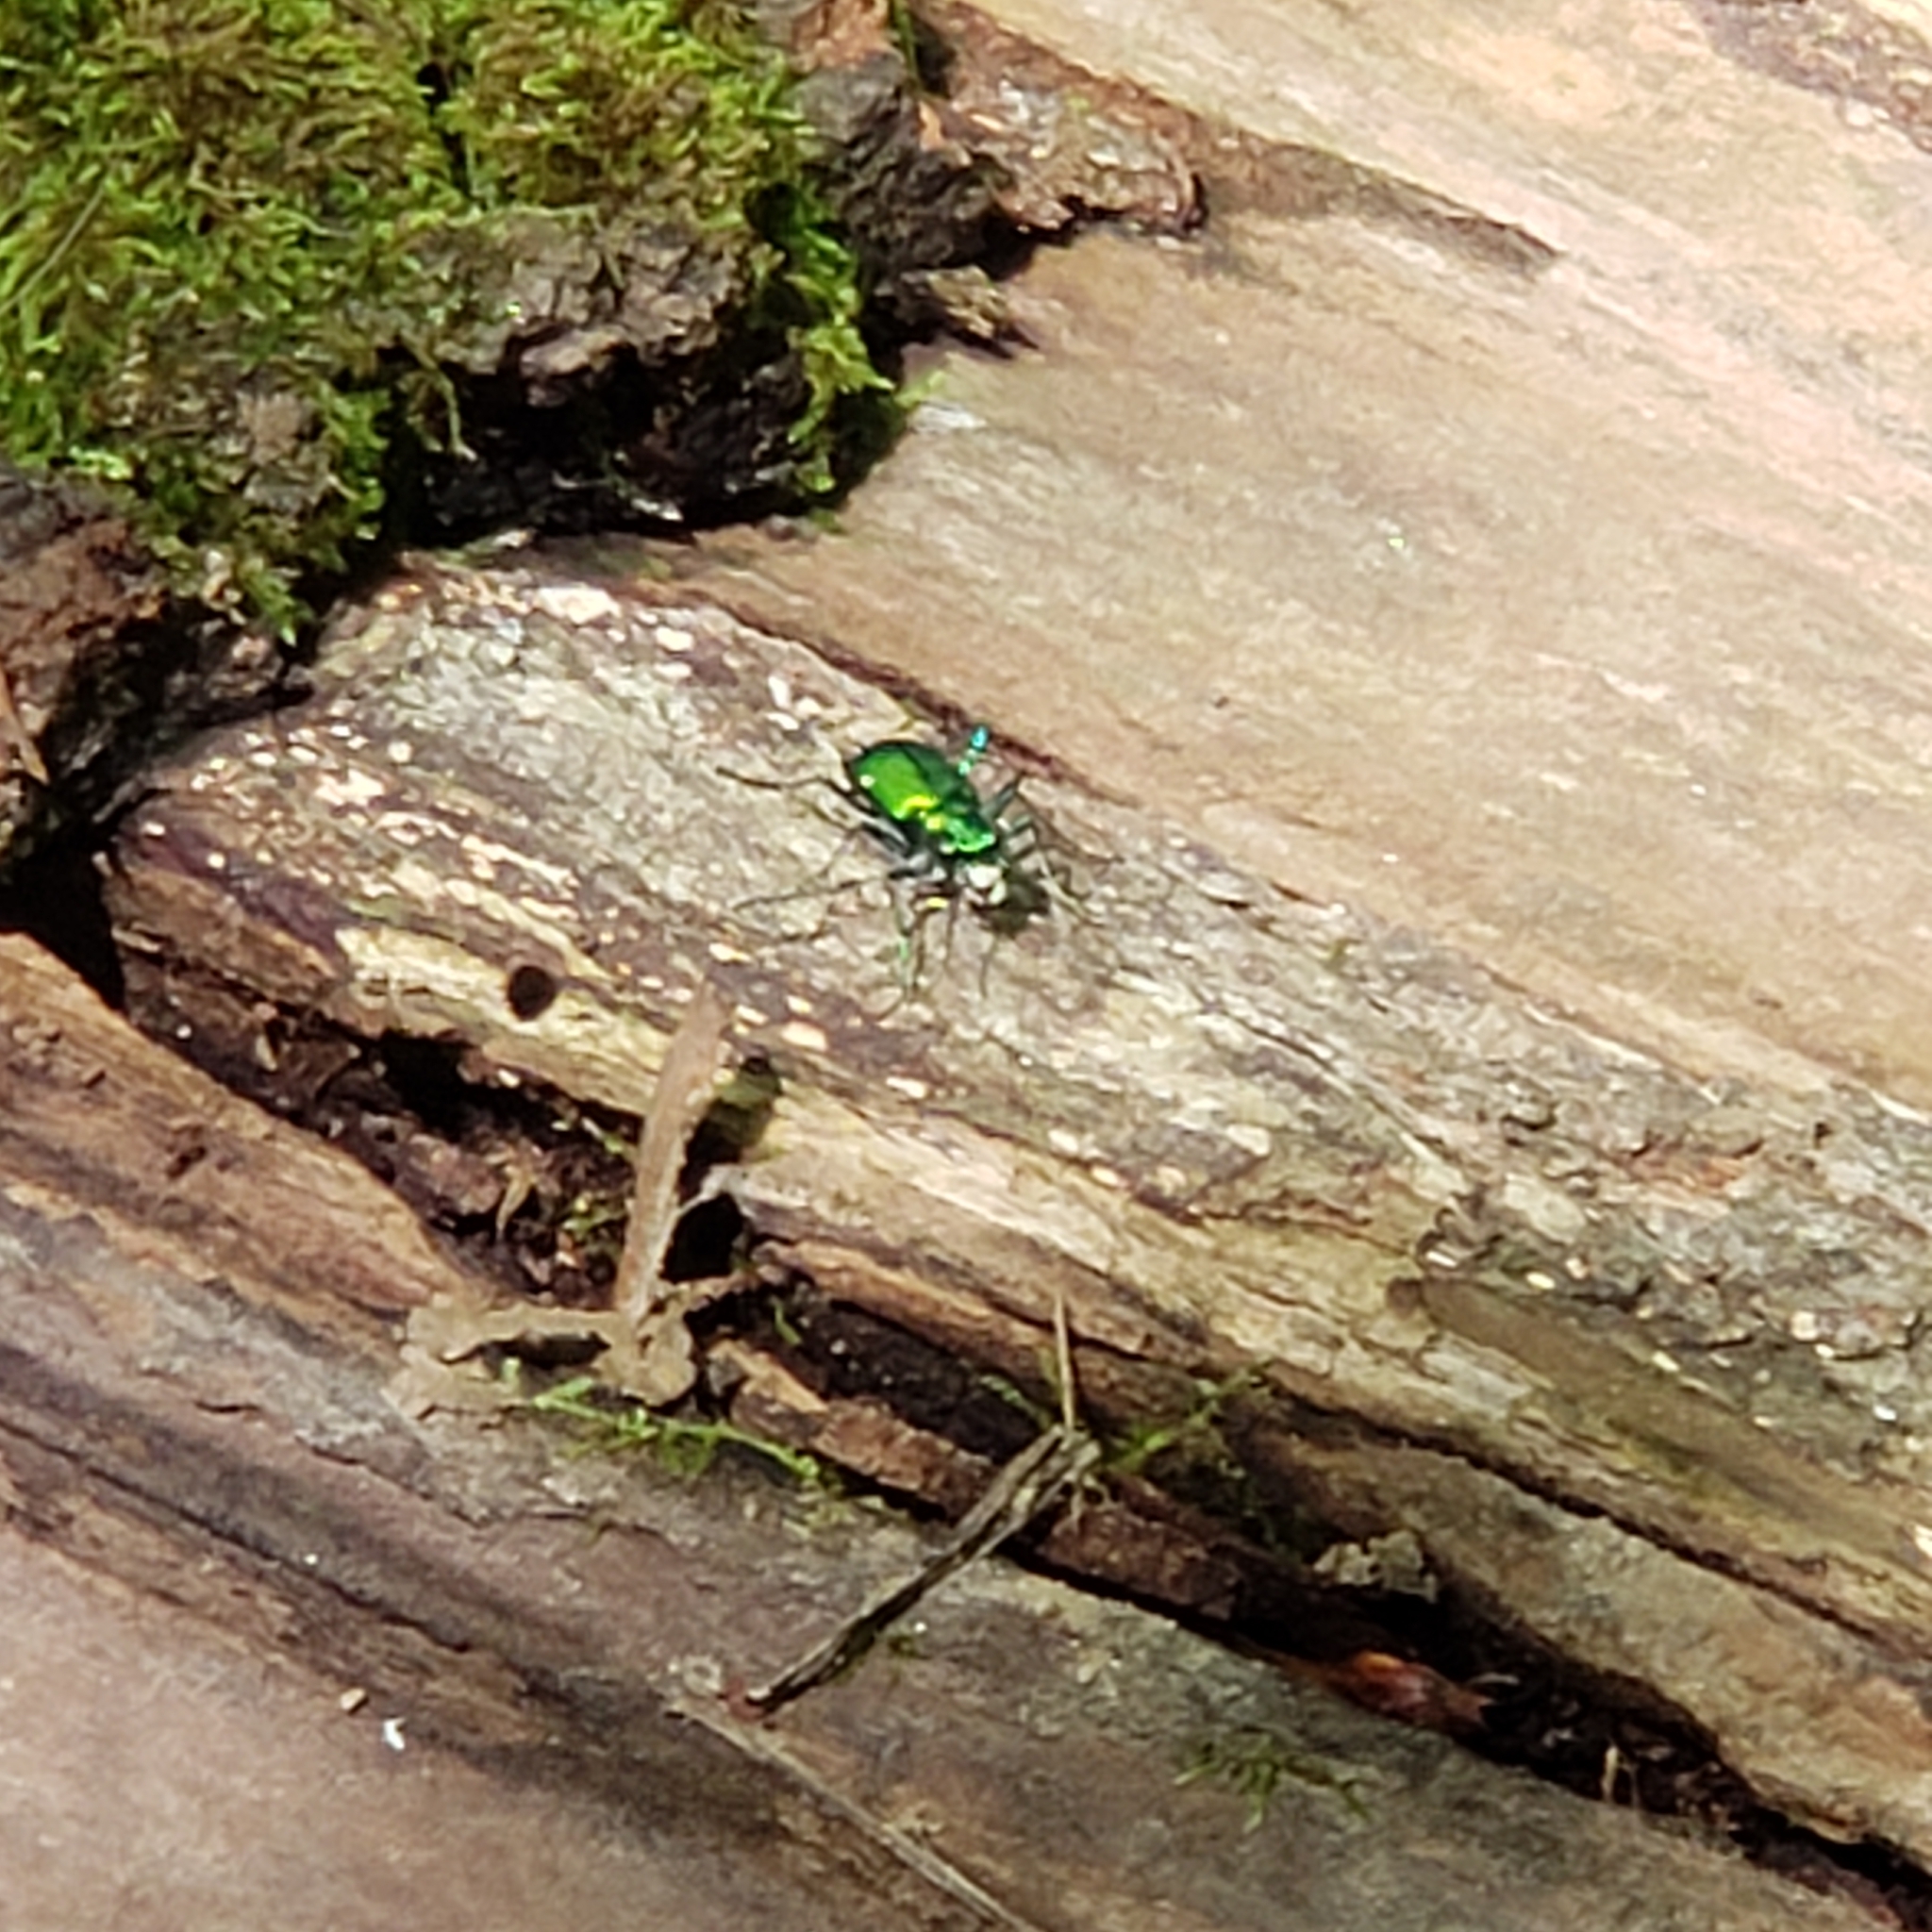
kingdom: Animalia
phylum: Arthropoda
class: Insecta
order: Coleoptera
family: Carabidae
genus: Cicindela
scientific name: Cicindela sexguttata
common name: Six-spotted tiger beetle
